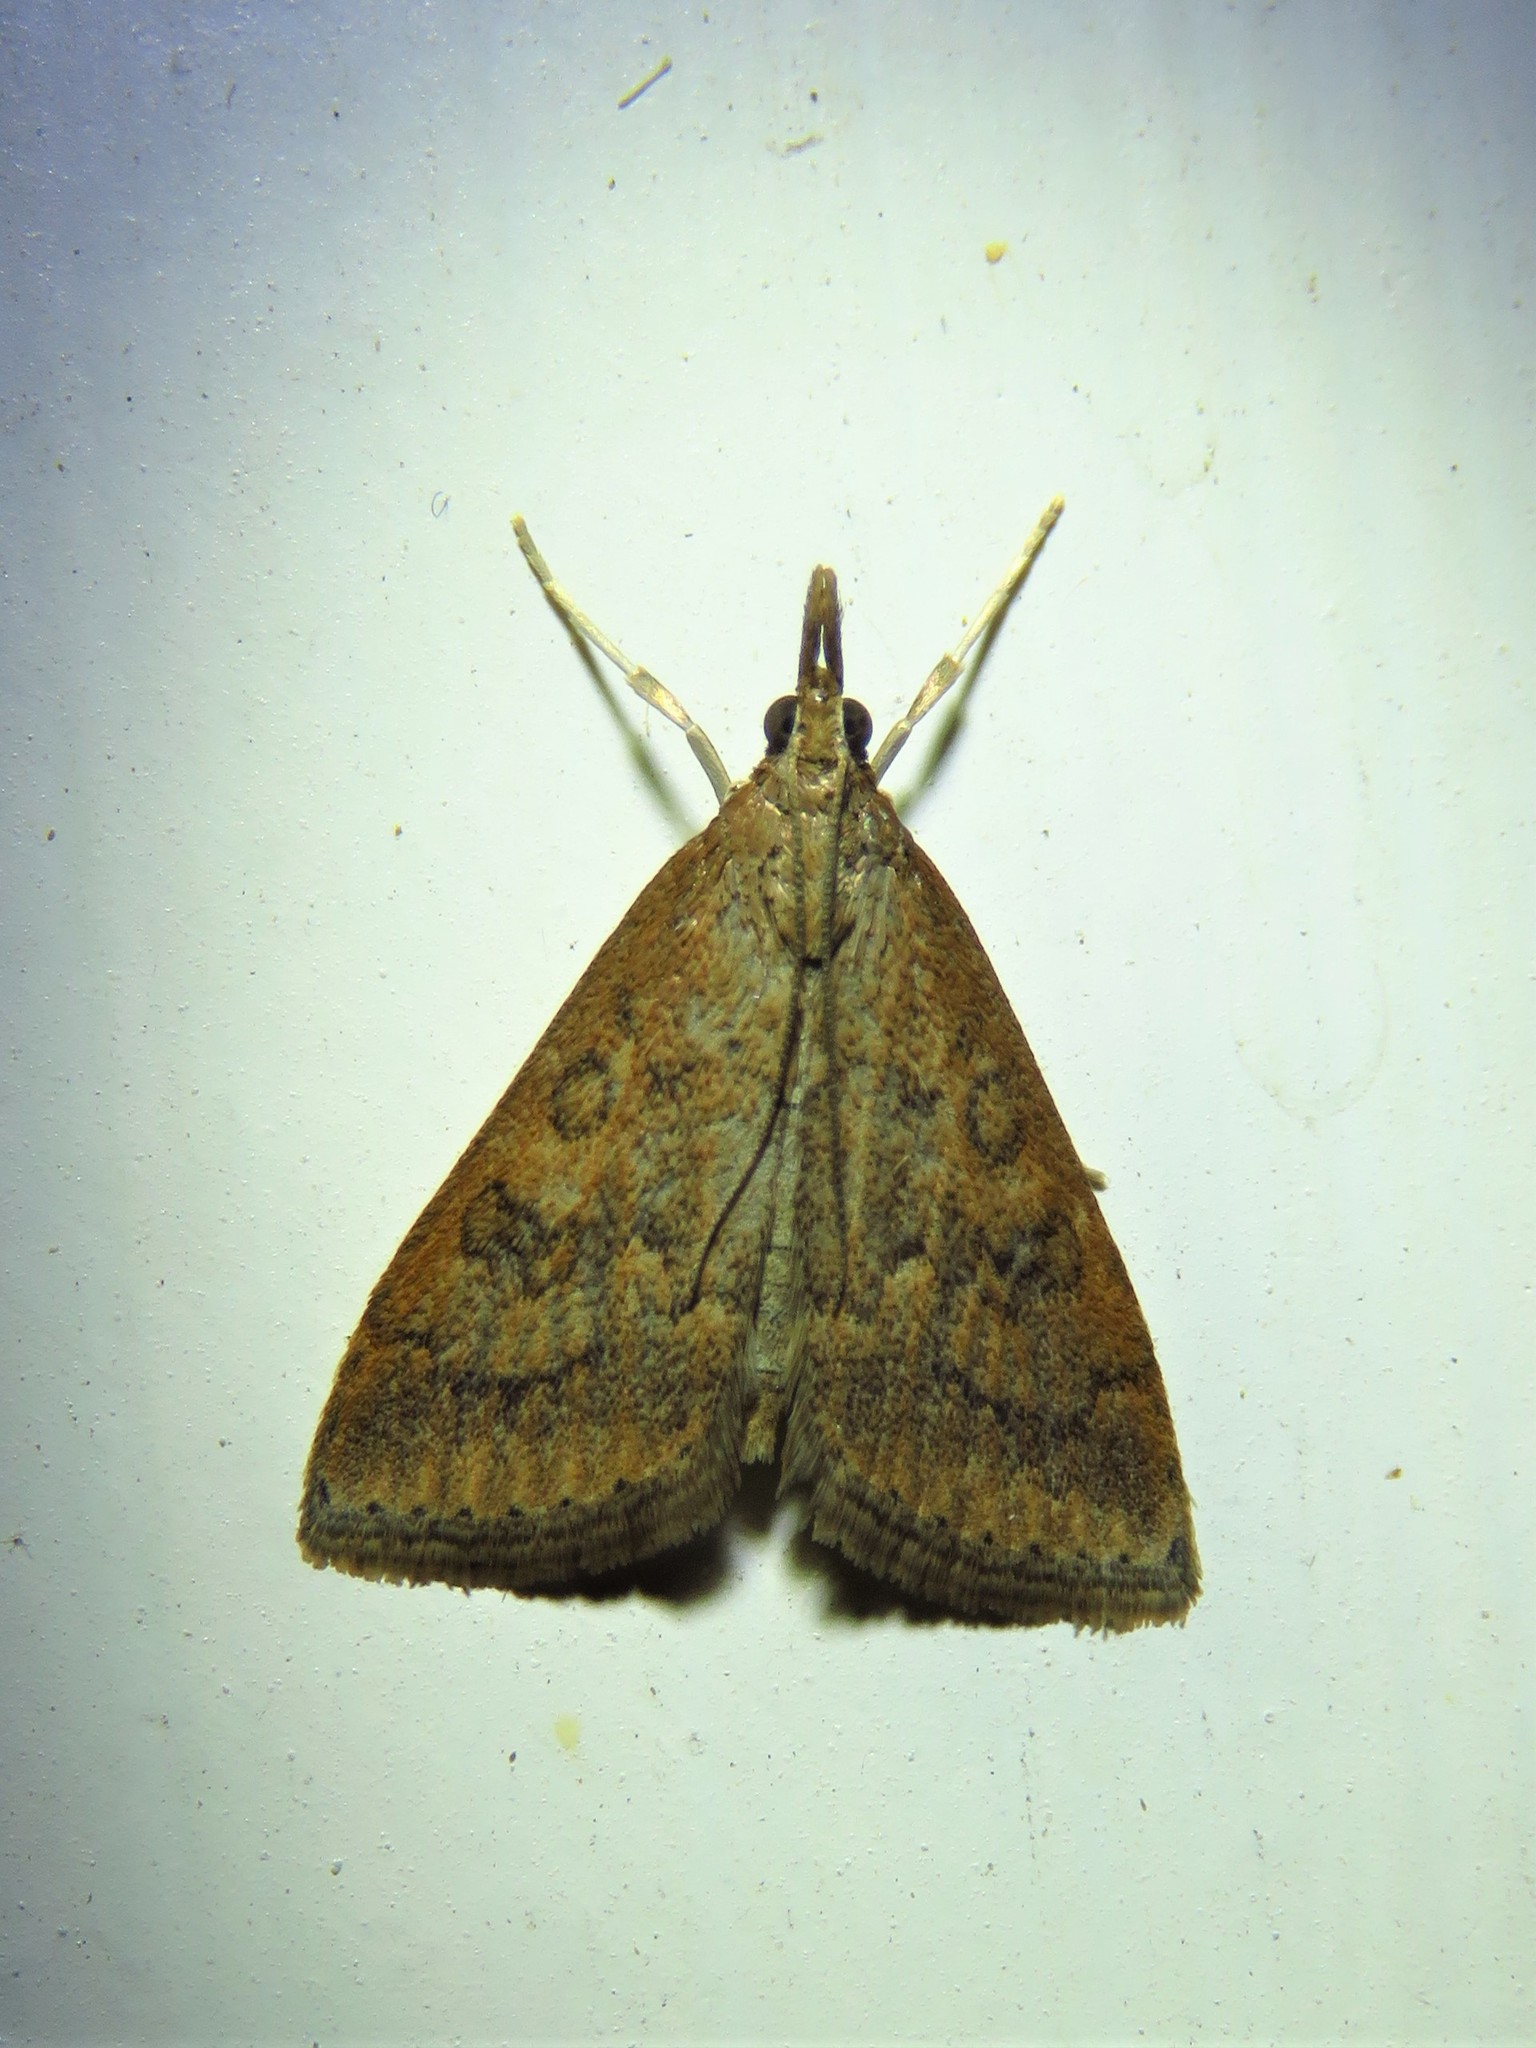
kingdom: Animalia
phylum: Arthropoda
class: Insecta
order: Lepidoptera
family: Crambidae
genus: Udea
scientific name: Udea rubigalis
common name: Celery leaftier moth
